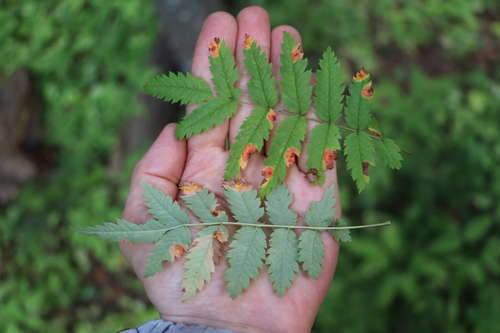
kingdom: Fungi
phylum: Basidiomycota
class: Pucciniomycetes
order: Pucciniales
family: Gymnosporangiaceae
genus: Gymnosporangium
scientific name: Gymnosporangium cornutum
